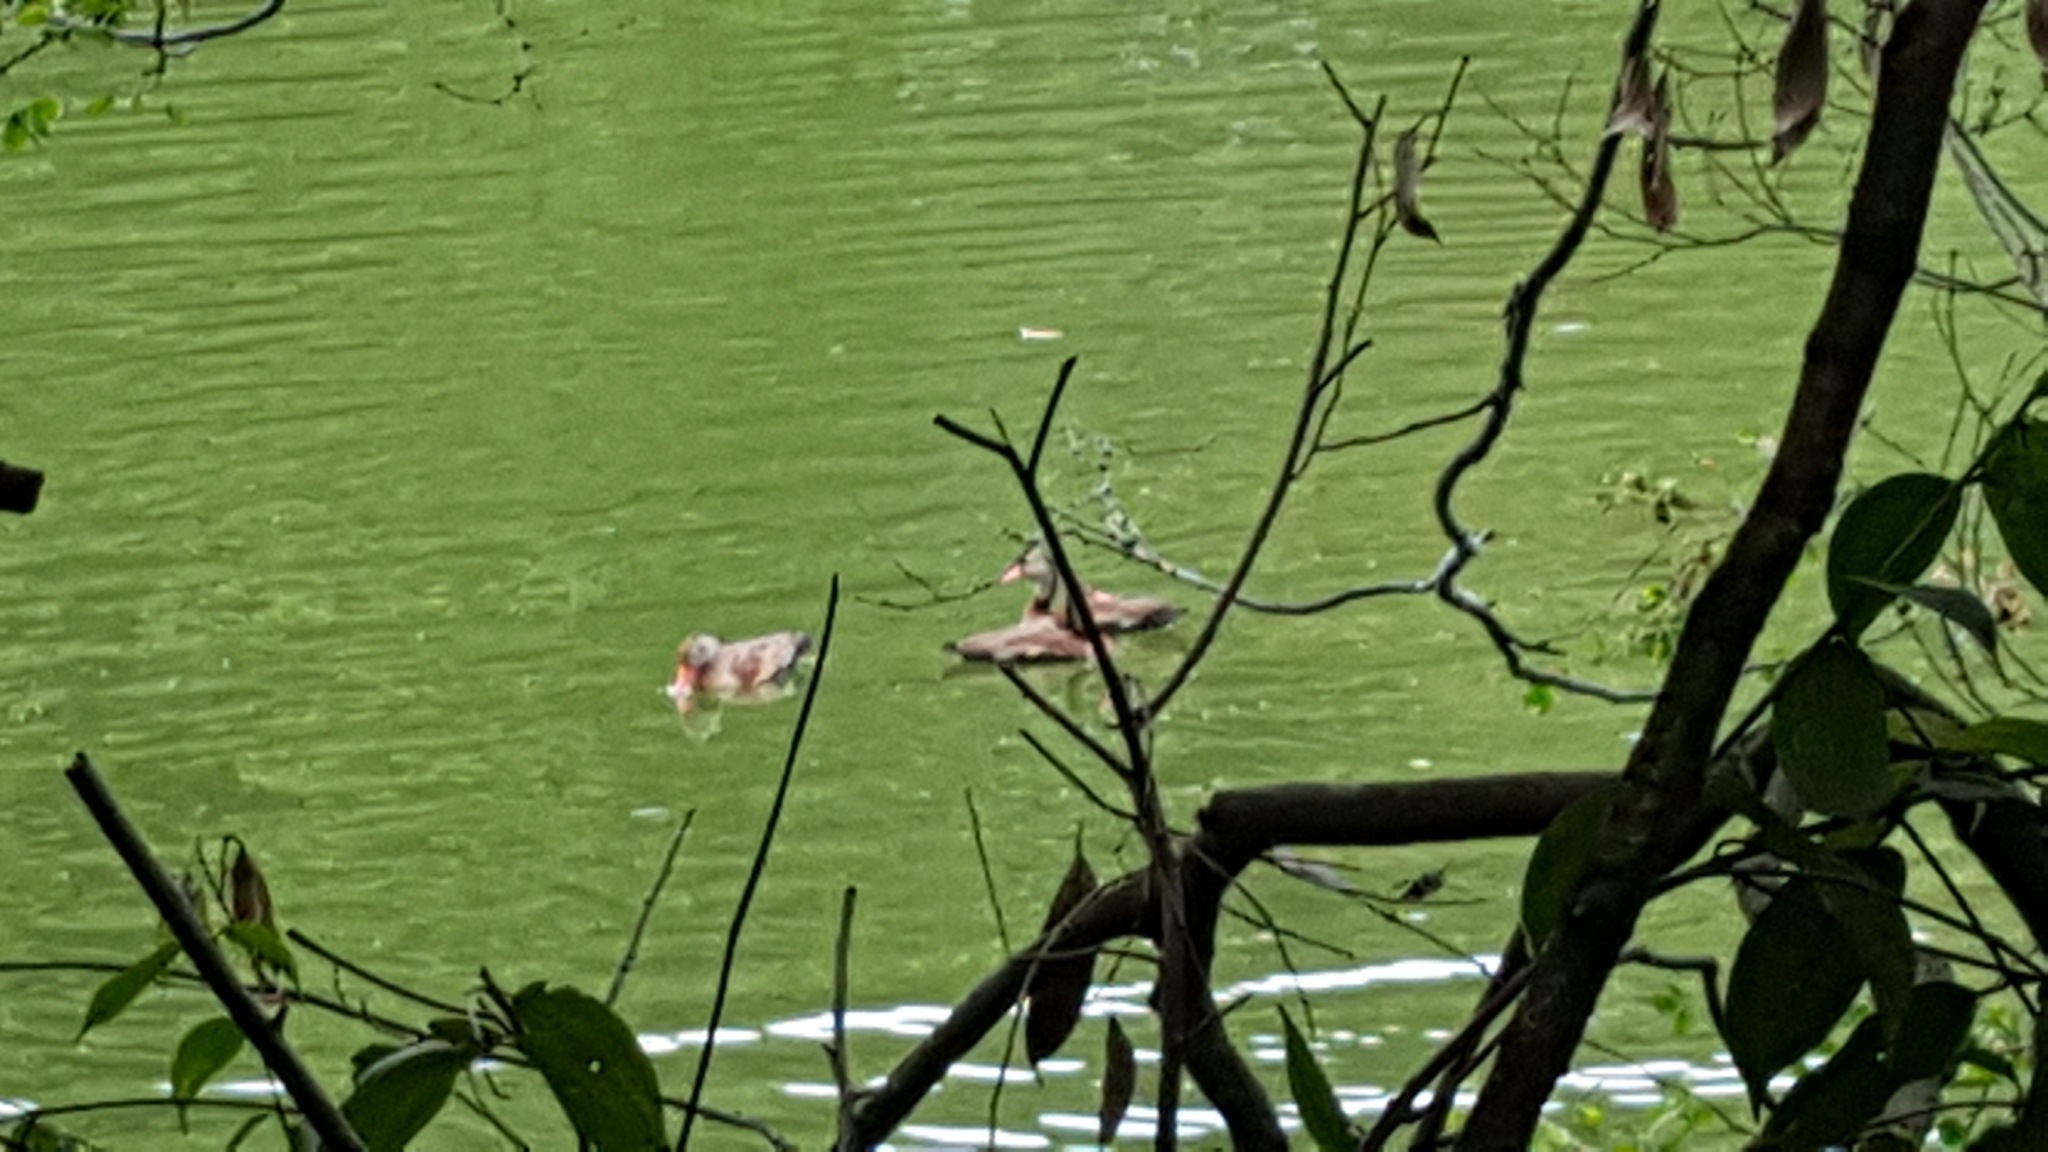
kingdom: Animalia
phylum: Chordata
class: Aves
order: Anseriformes
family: Anatidae
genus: Dendrocygna
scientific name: Dendrocygna autumnalis
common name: Black-bellied whistling duck
